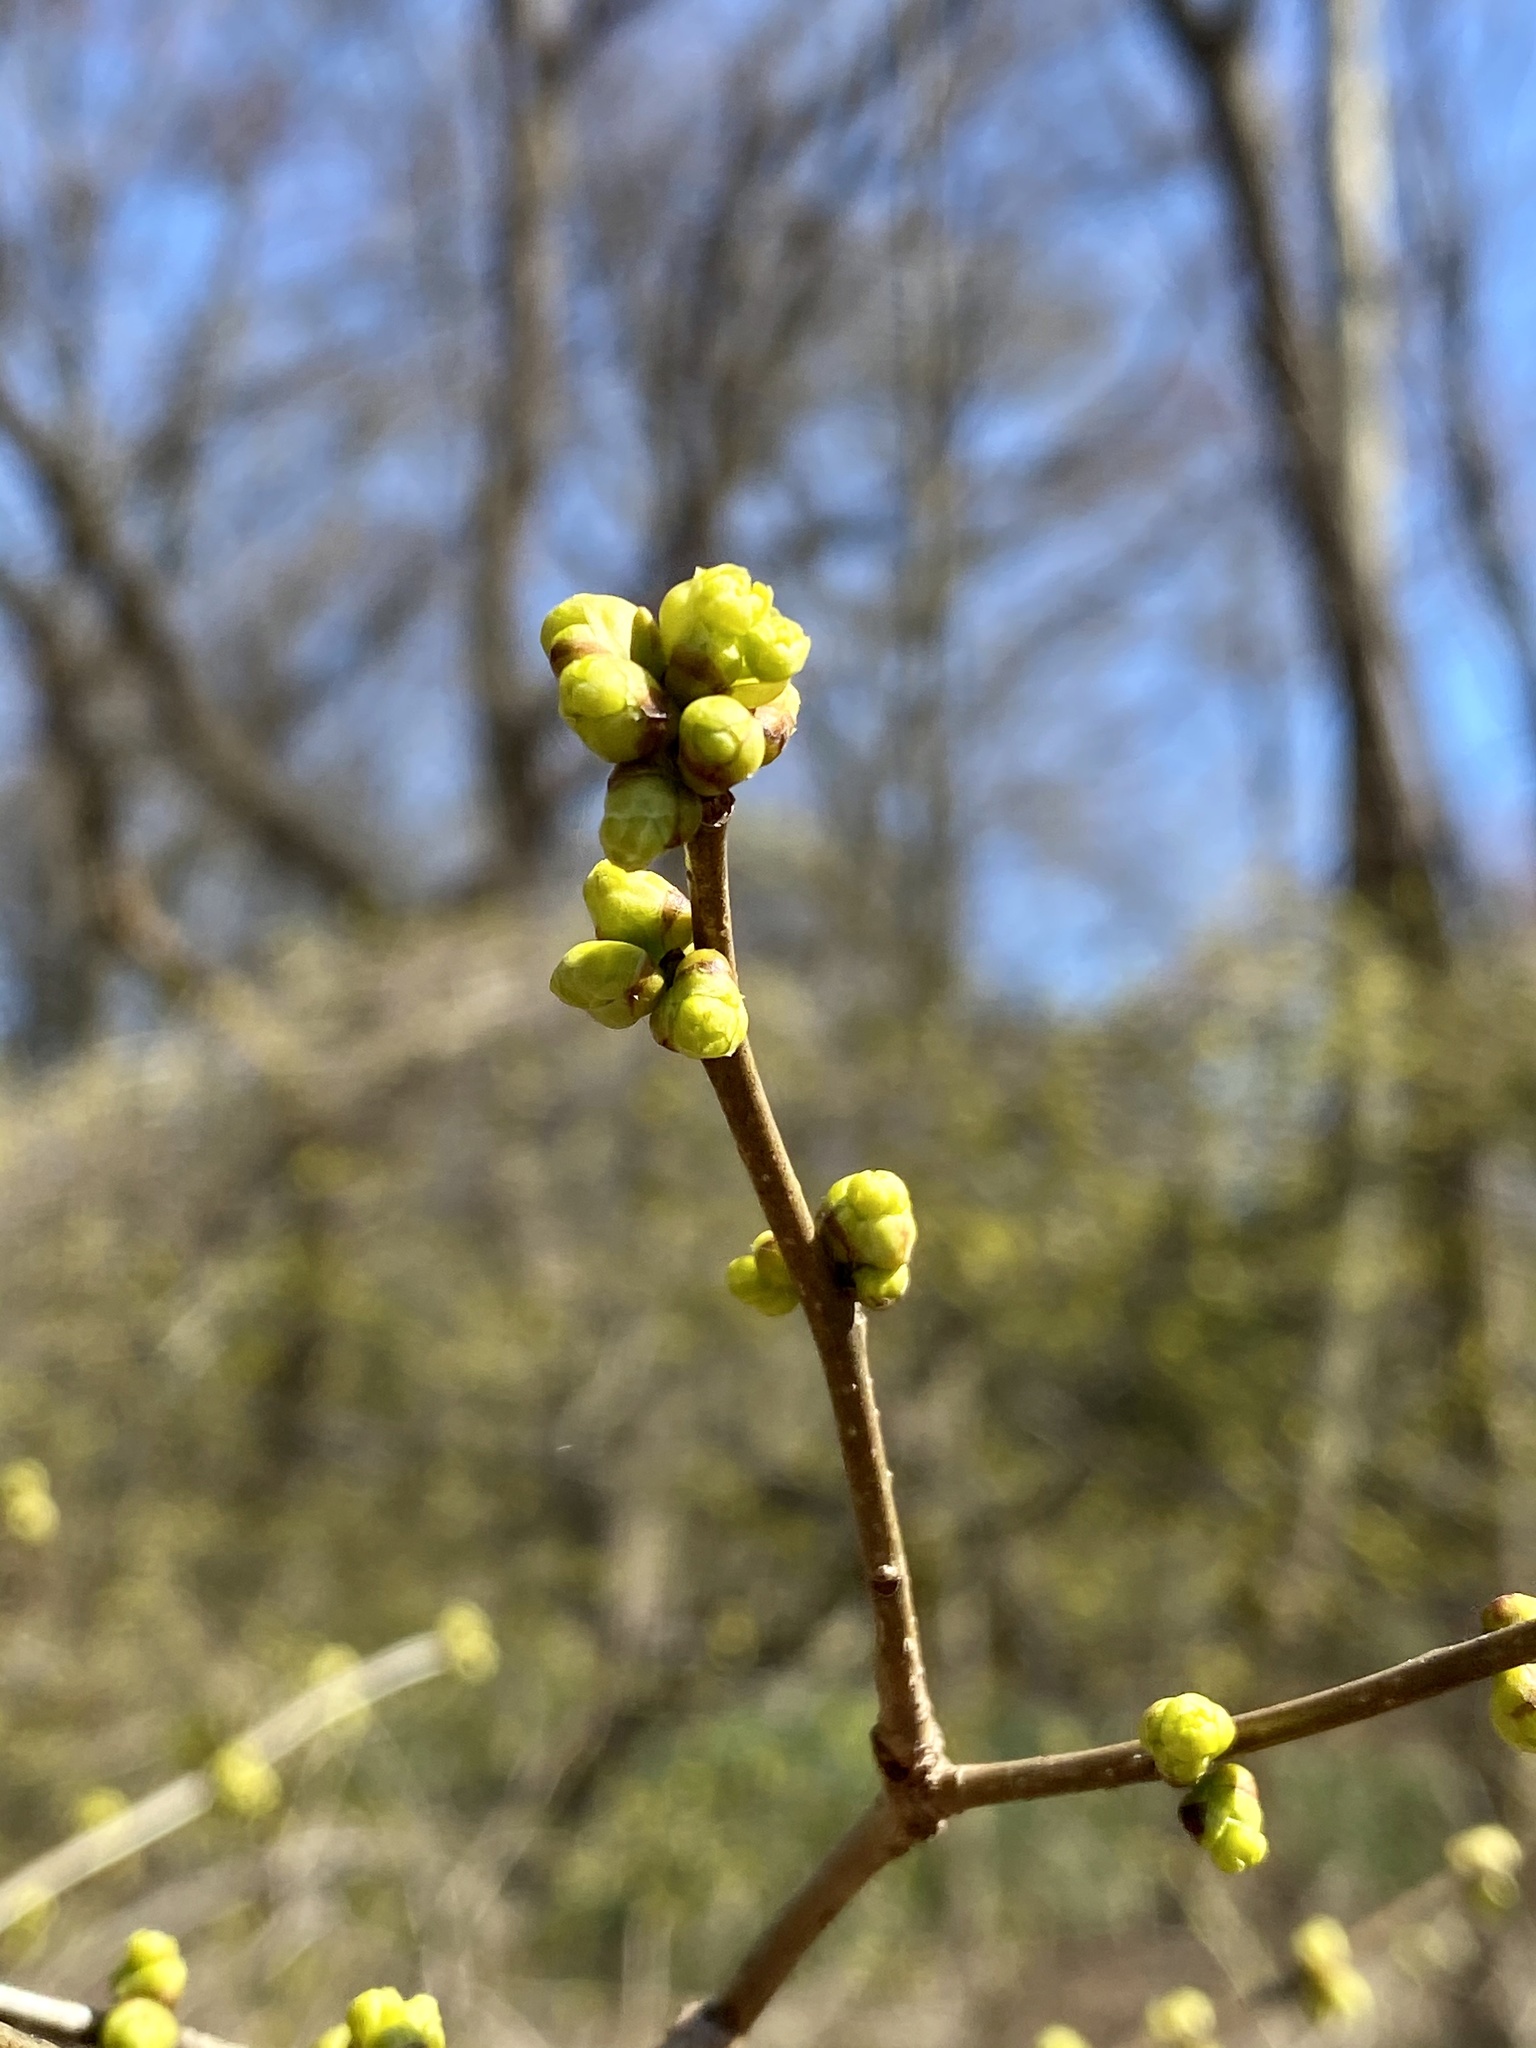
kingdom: Plantae
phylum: Tracheophyta
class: Magnoliopsida
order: Laurales
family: Lauraceae
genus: Lindera
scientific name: Lindera benzoin
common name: Spicebush
